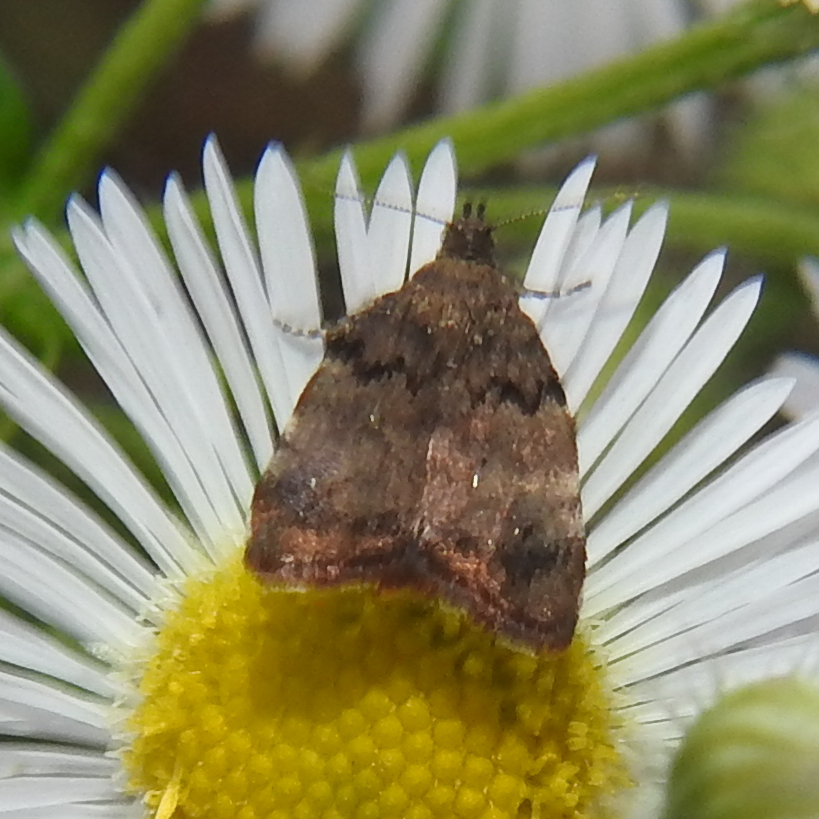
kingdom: Animalia
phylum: Arthropoda
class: Insecta
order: Lepidoptera
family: Choreutidae
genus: Choreutis
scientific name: Choreutis pariana
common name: Apple leaf skeletoniser
